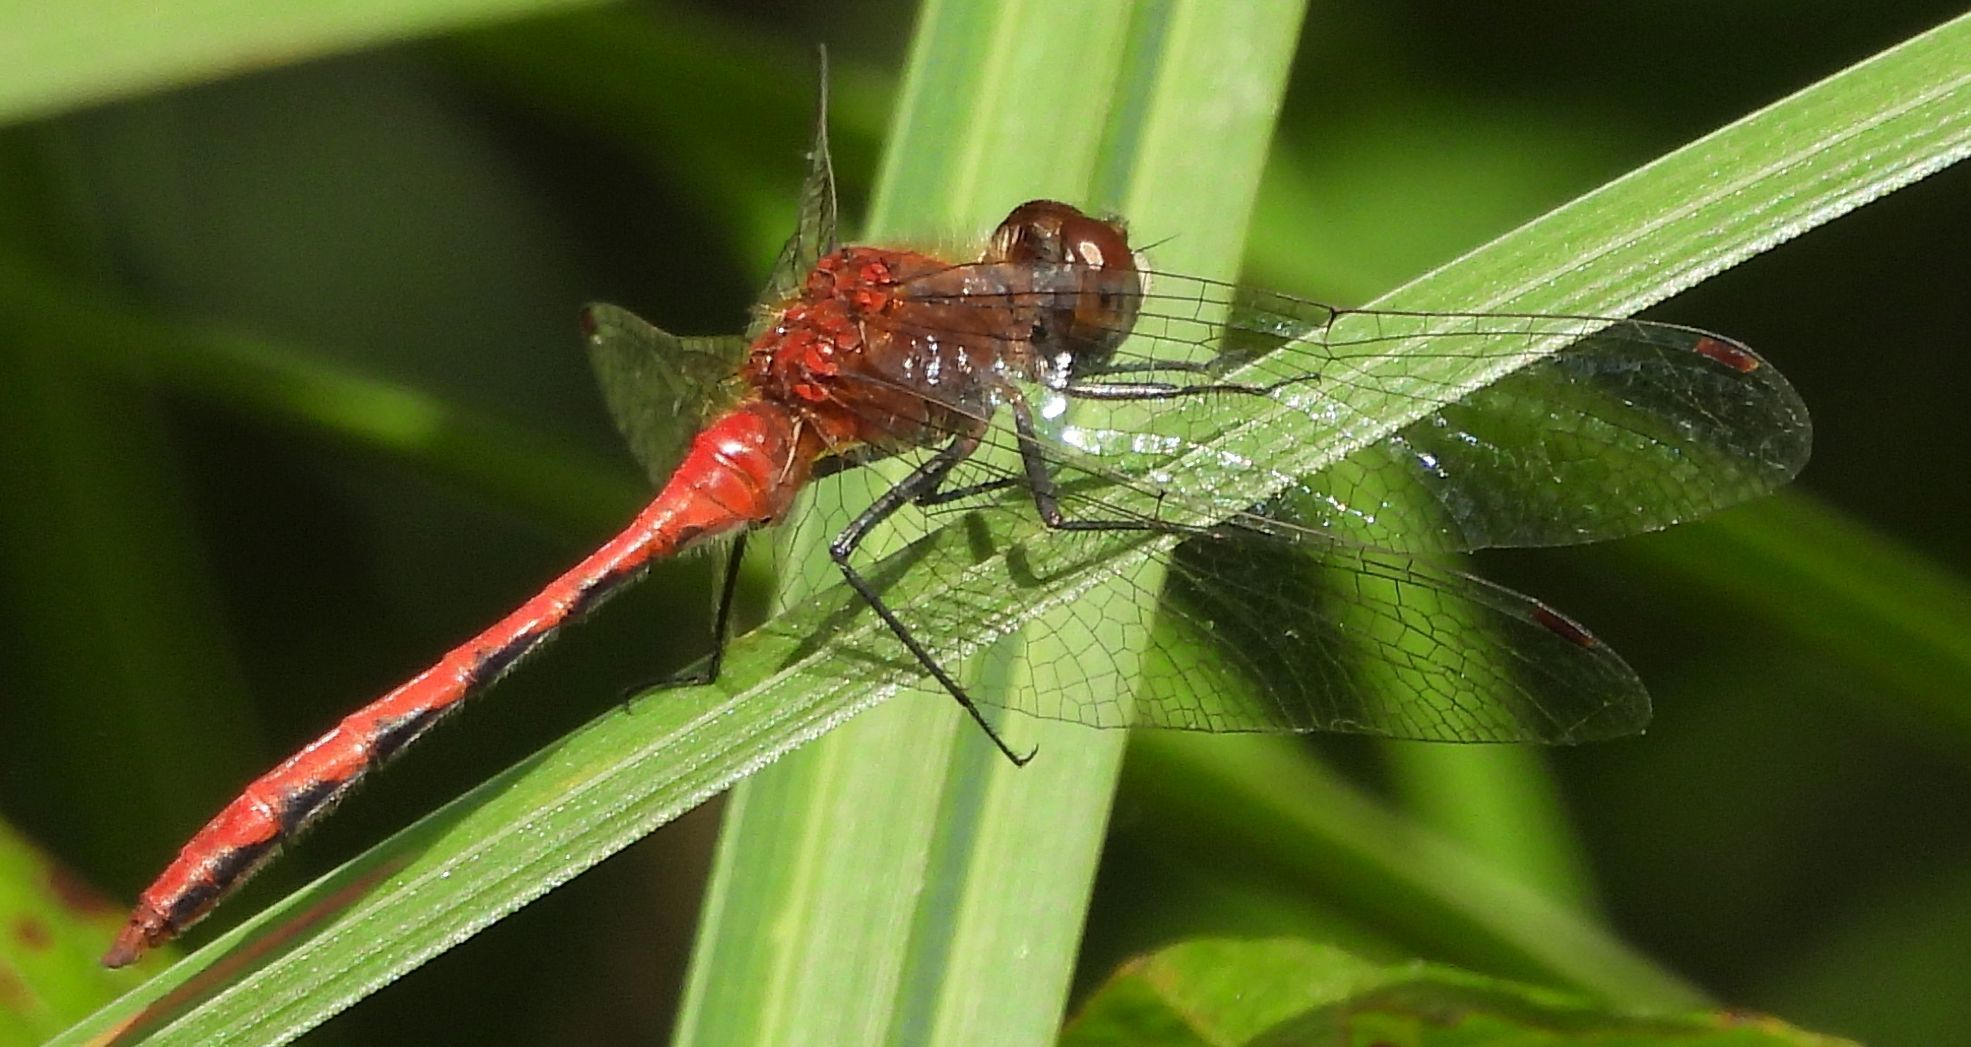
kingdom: Animalia
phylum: Arthropoda
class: Insecta
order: Odonata
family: Libellulidae
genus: Sympetrum
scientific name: Sympetrum obtrusum
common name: White-faced meadowhawk
